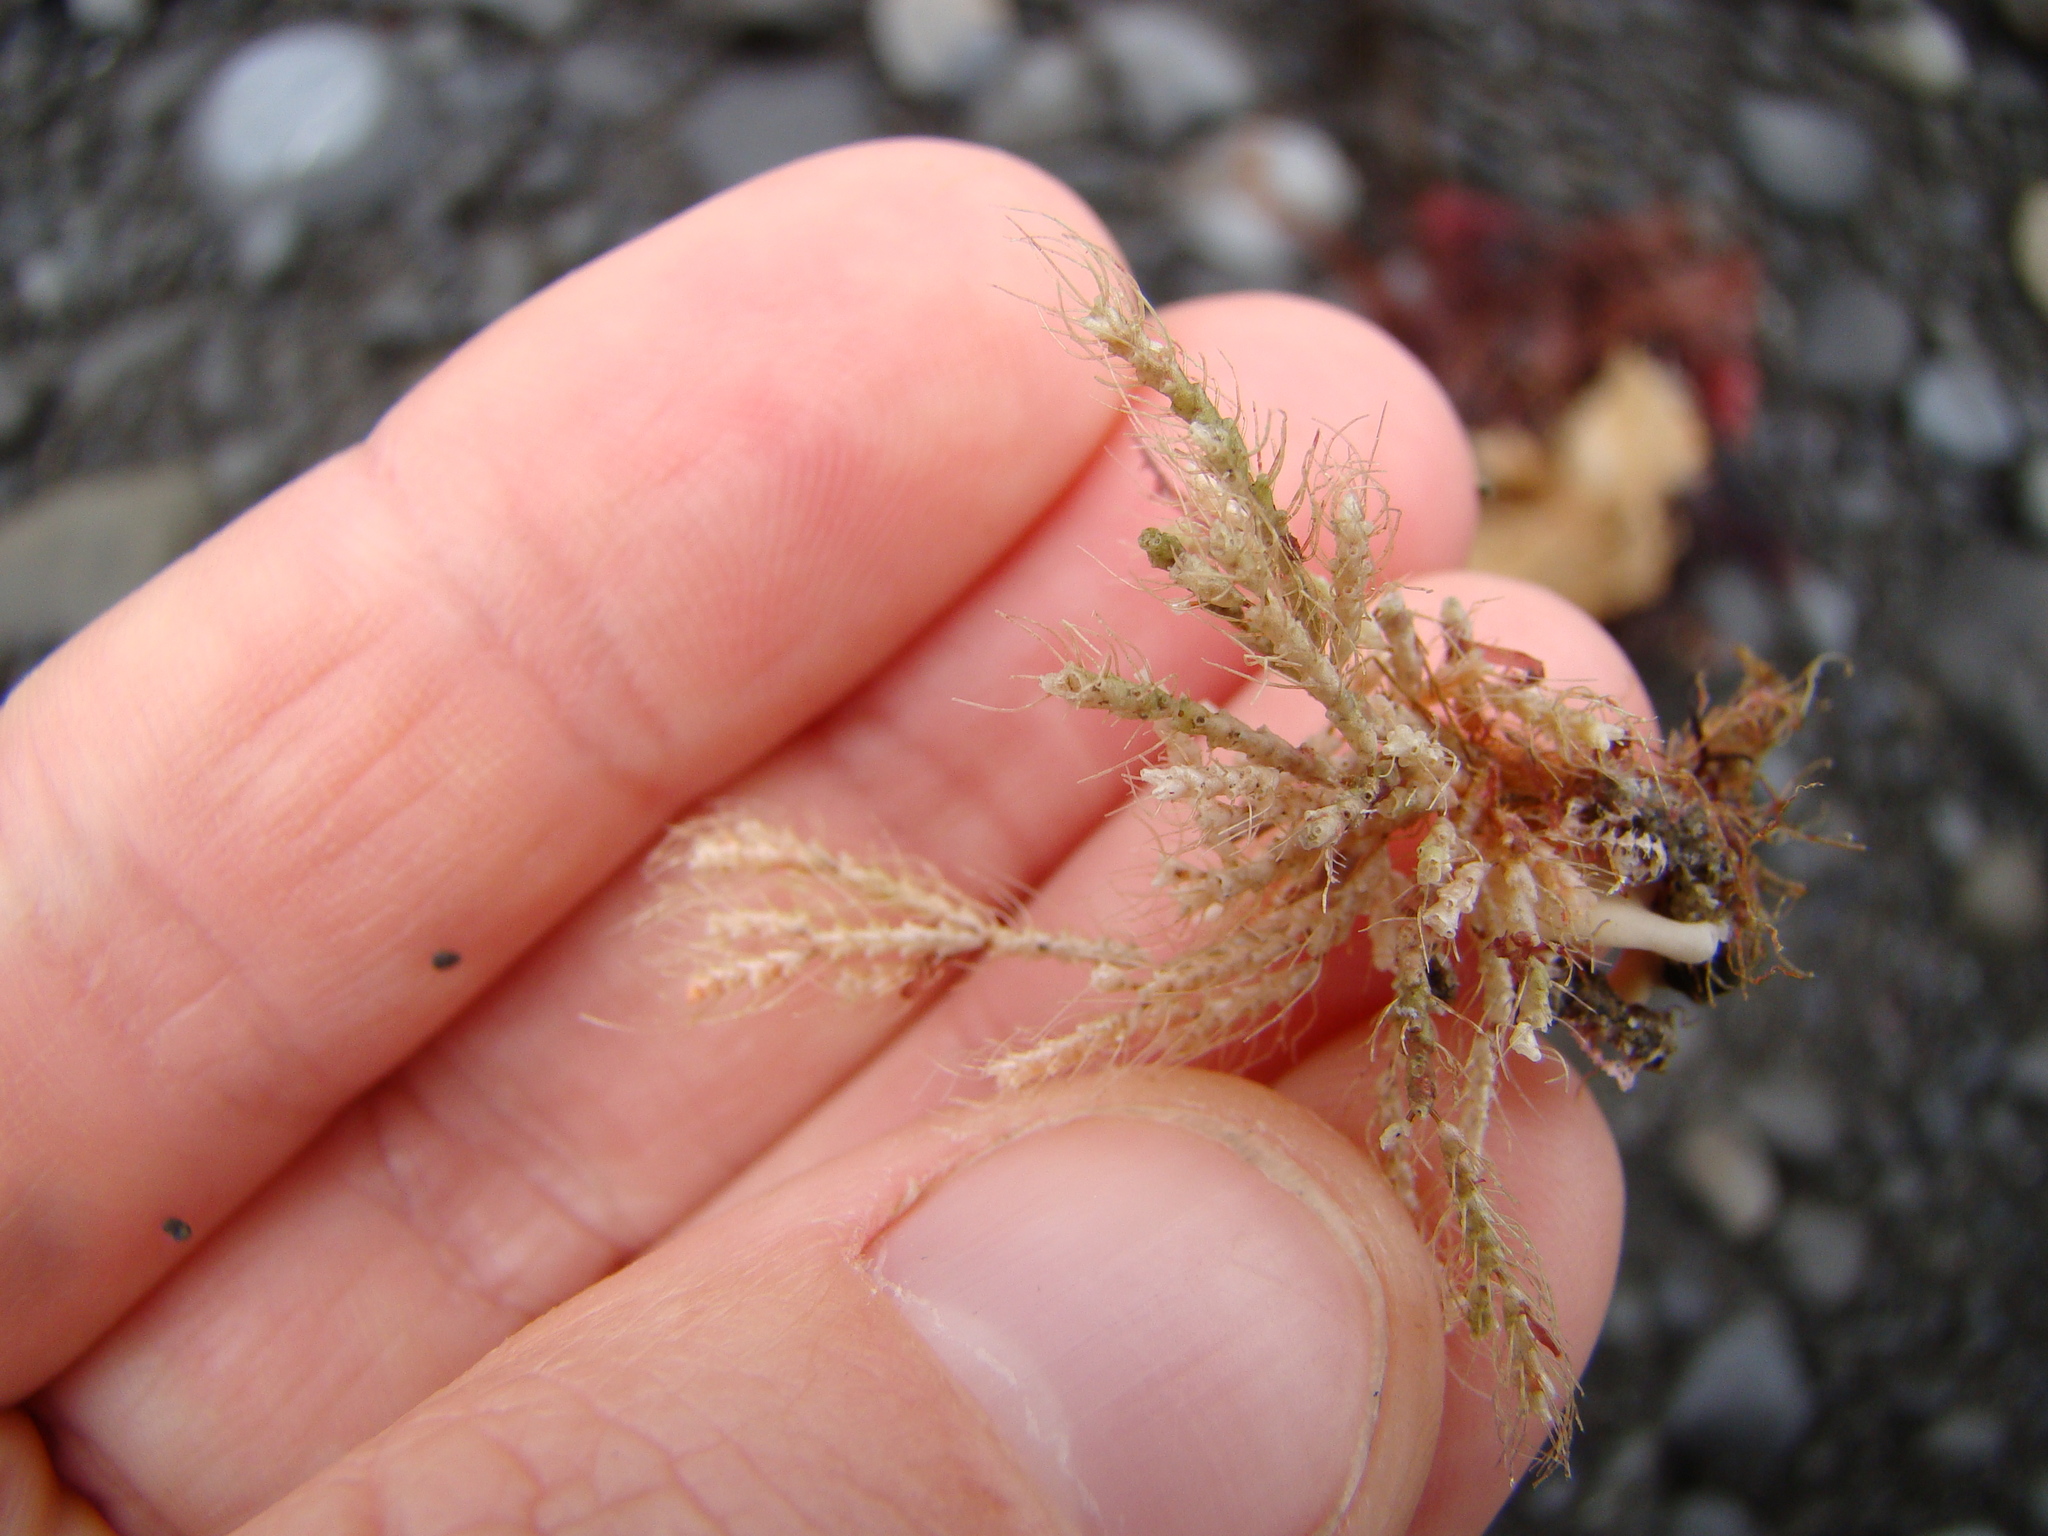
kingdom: Animalia
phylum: Bryozoa
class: Gymnolaemata
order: Cheilostomatida
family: Margarettidae
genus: Margaretta
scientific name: Margaretta barbata
